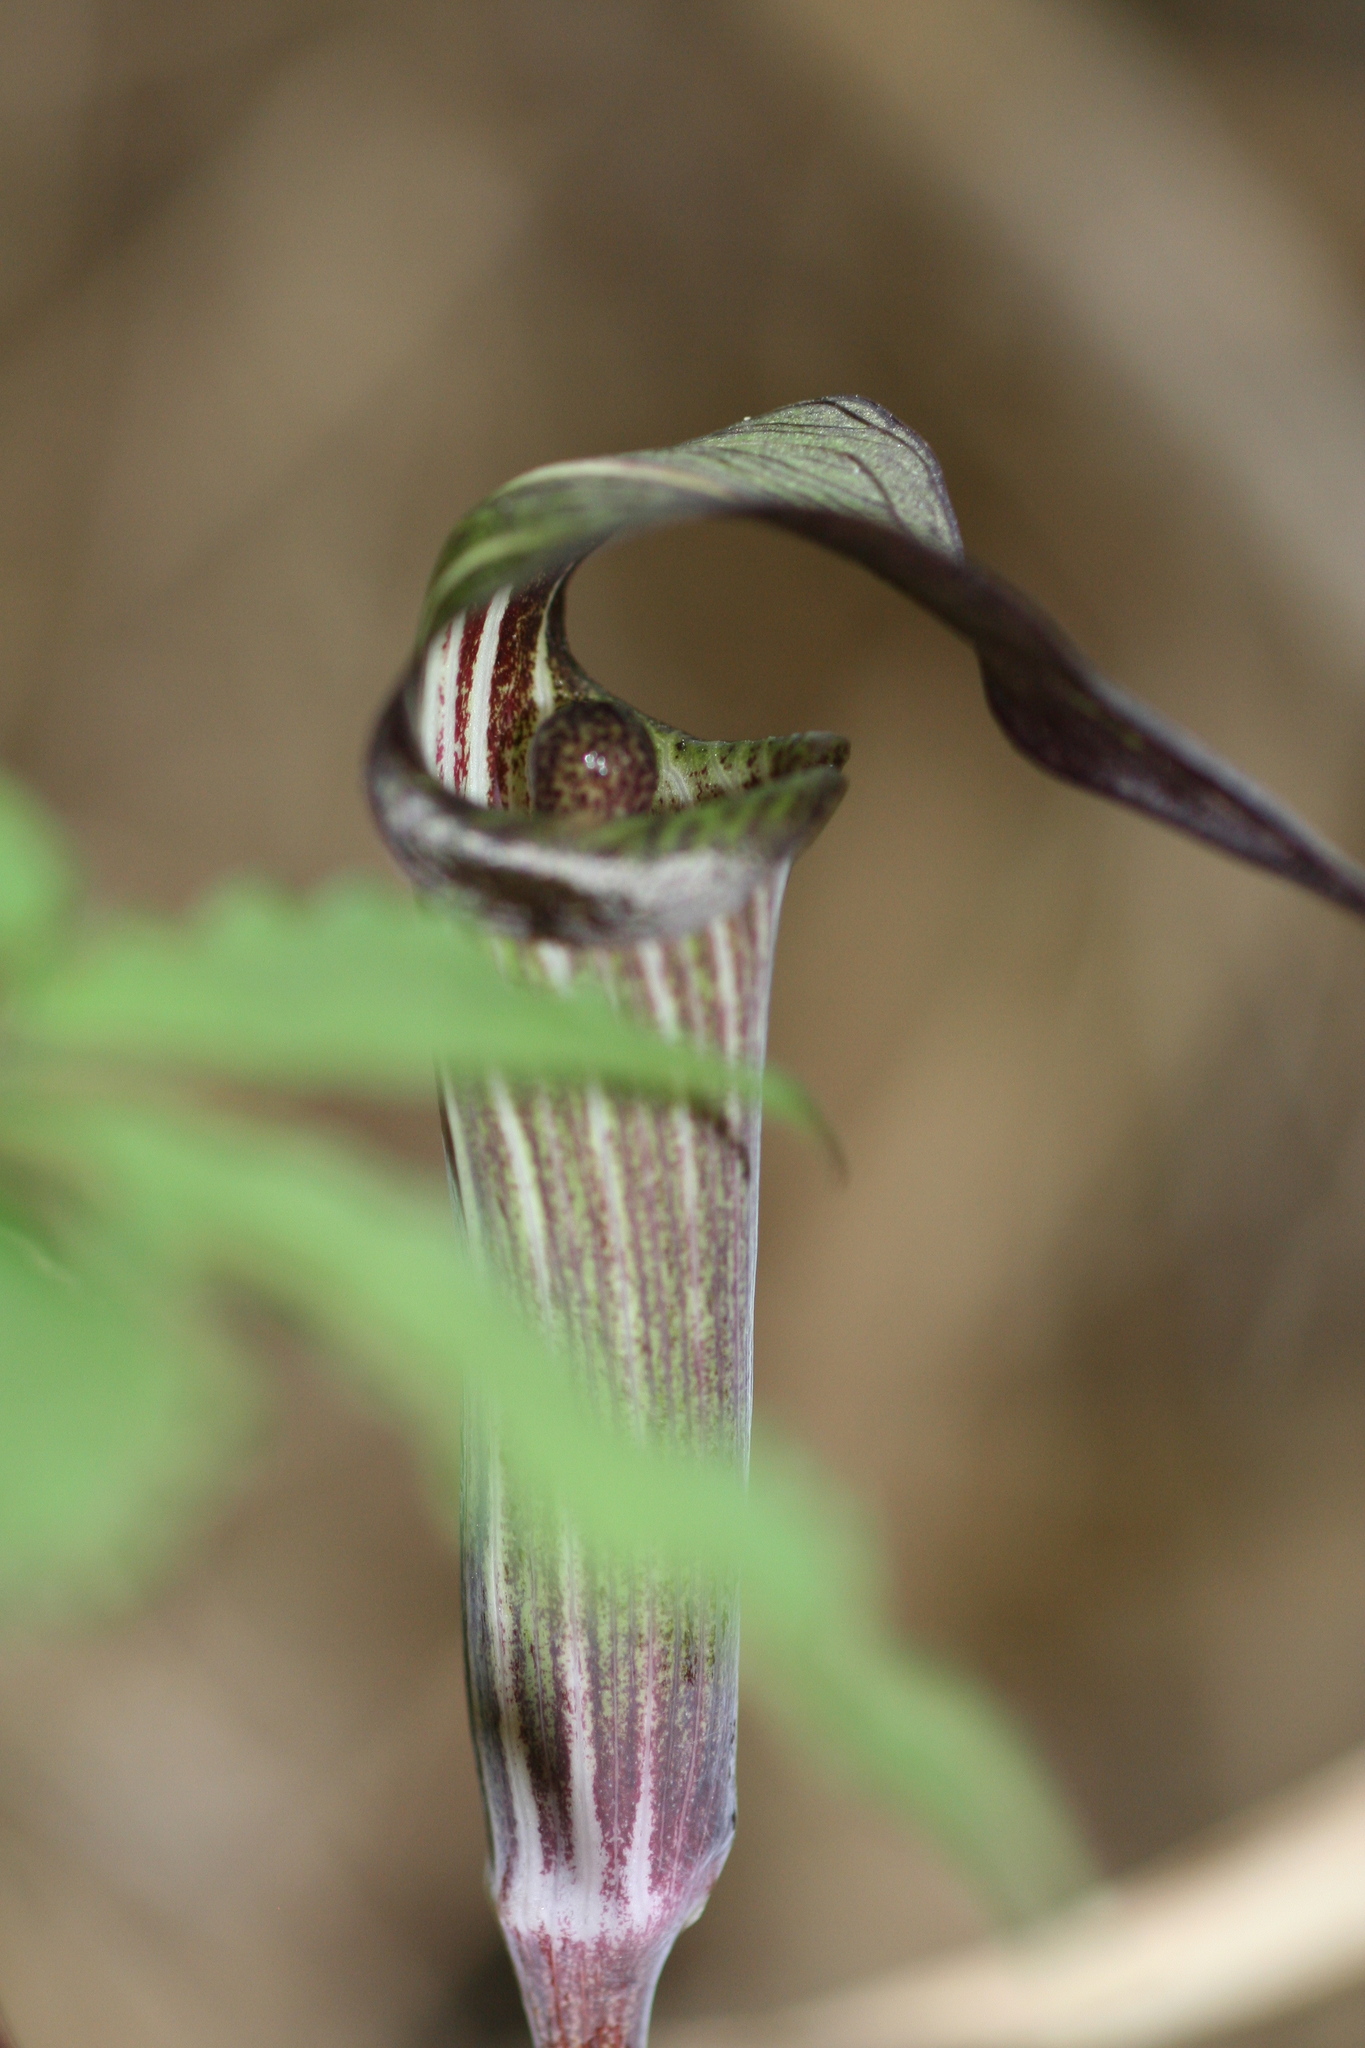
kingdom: Plantae
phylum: Tracheophyta
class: Liliopsida
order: Alismatales
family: Araceae
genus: Arisaema
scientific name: Arisaema serratum
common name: Japanese arisaema
